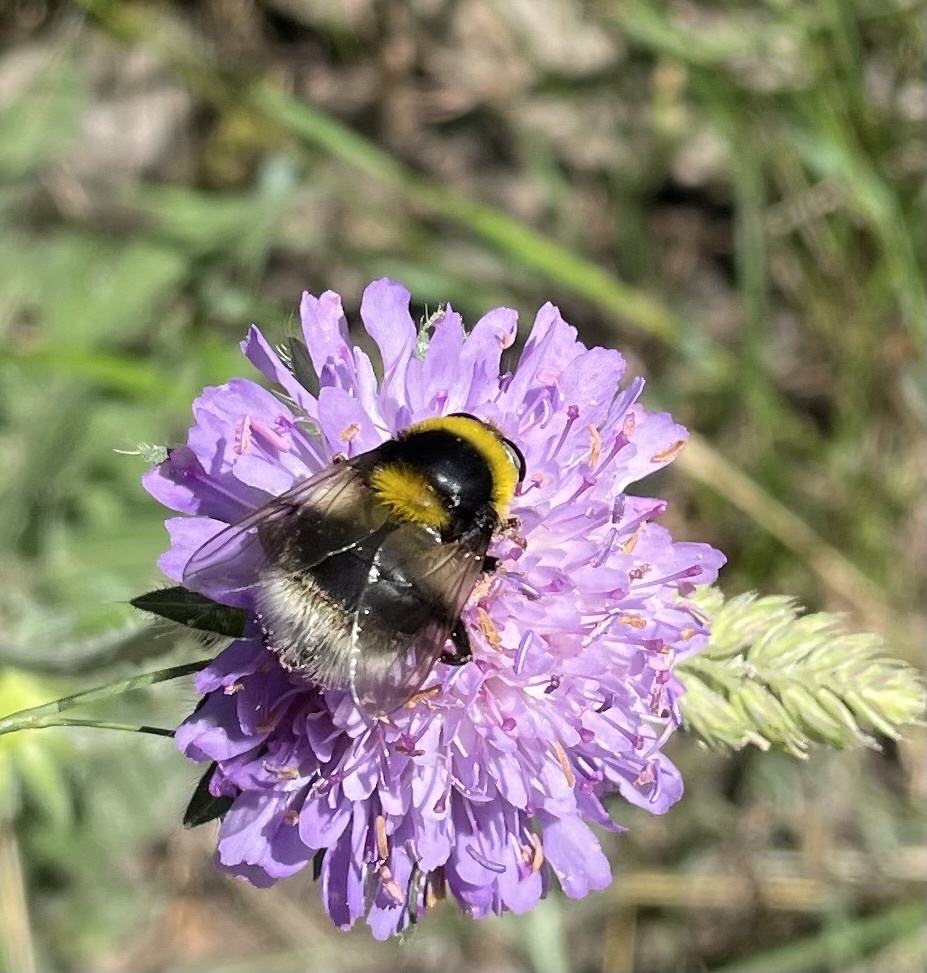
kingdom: Animalia
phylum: Arthropoda
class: Insecta
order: Diptera
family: Syrphidae
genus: Sericomyia
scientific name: Sericomyia bombiformis
